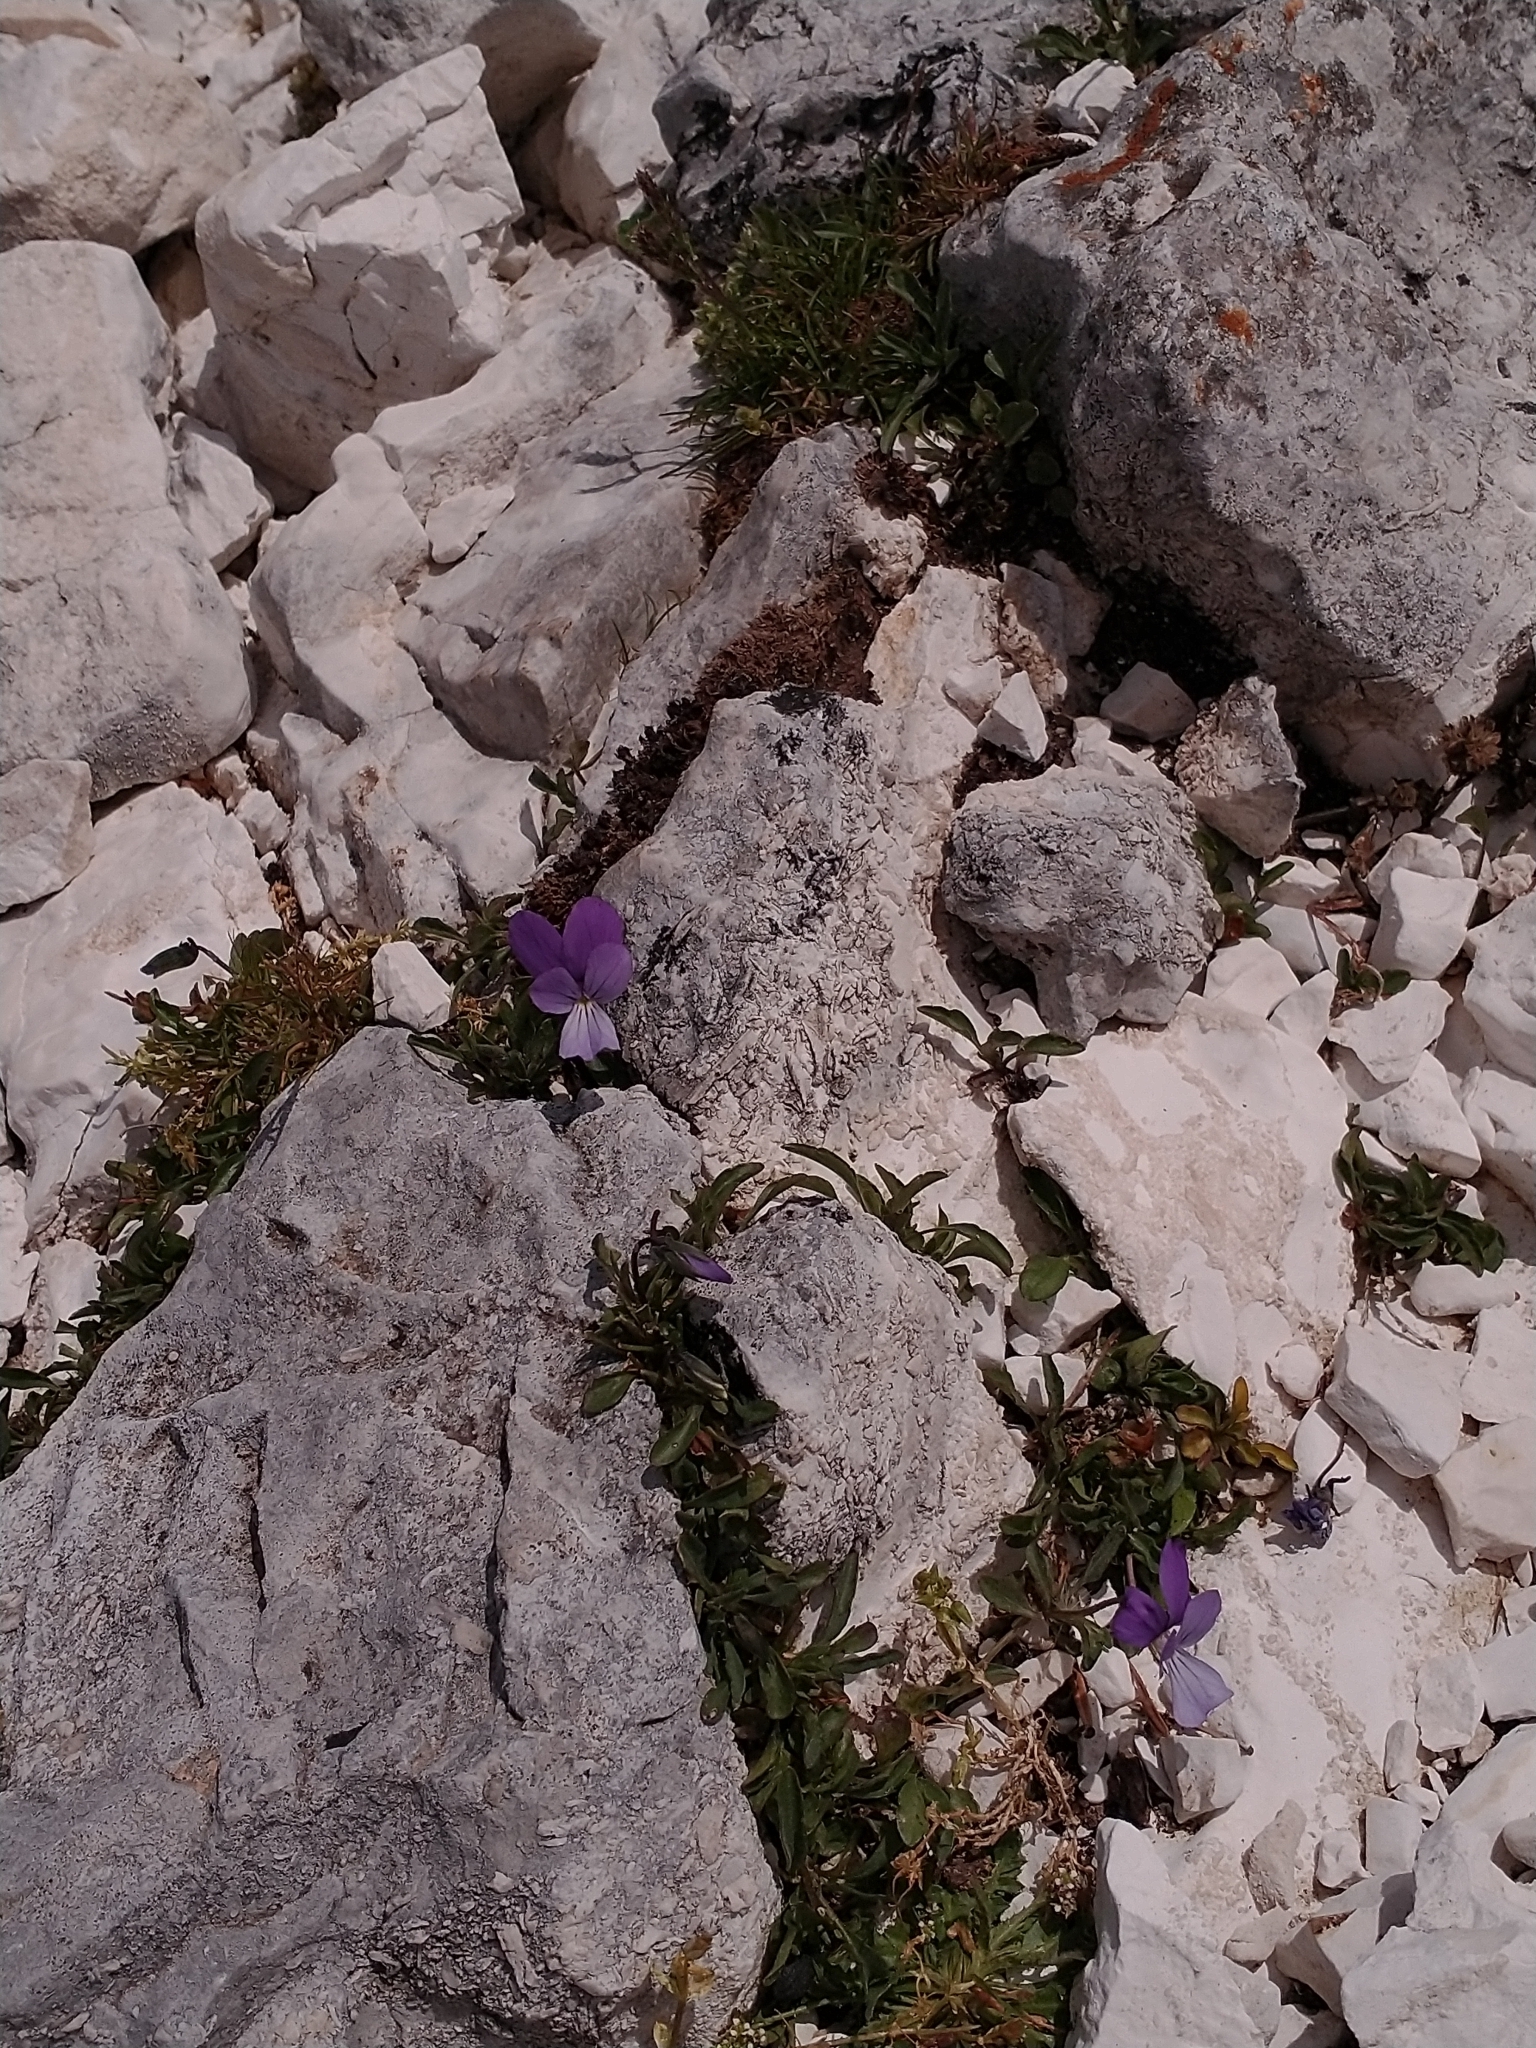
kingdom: Plantae
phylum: Tracheophyta
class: Magnoliopsida
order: Malpighiales
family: Violaceae
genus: Viola
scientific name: Viola cephalonica
